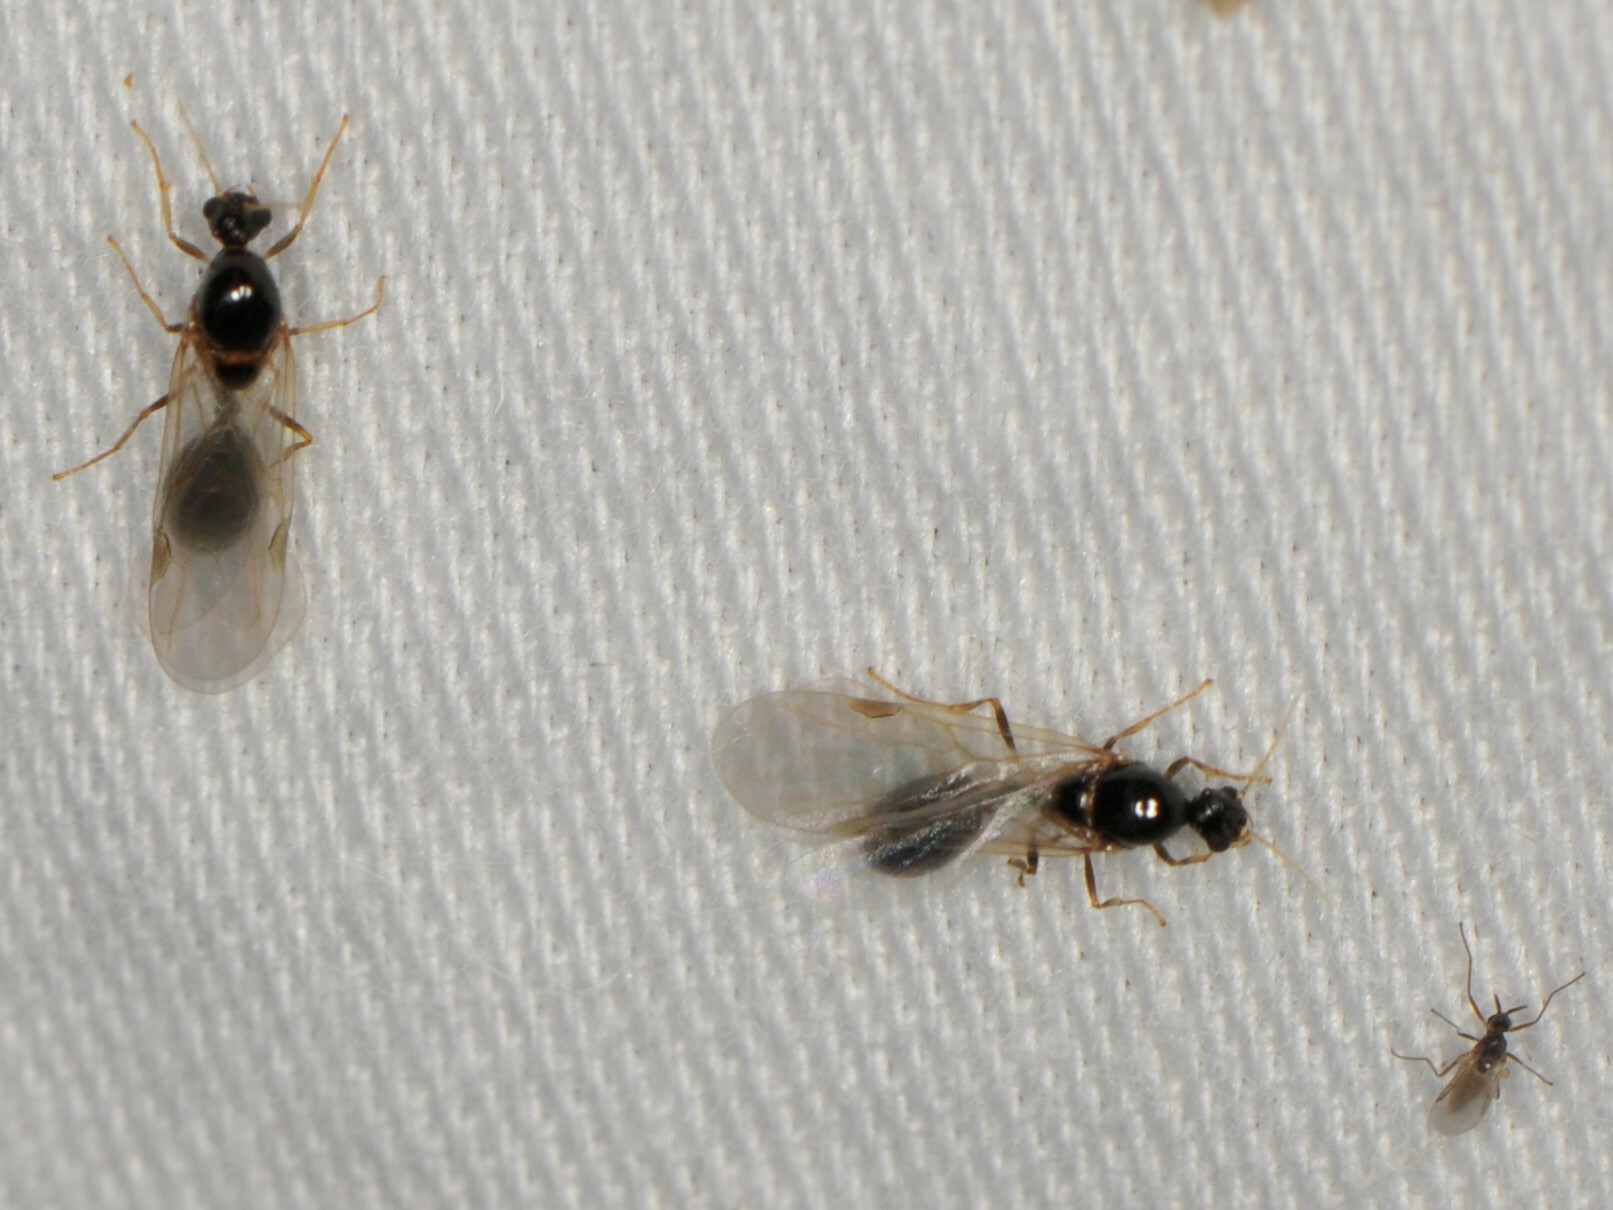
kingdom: Animalia
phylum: Arthropoda
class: Insecta
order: Hymenoptera
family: Formicidae
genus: Myrmicinae
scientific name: Myrmicinae
